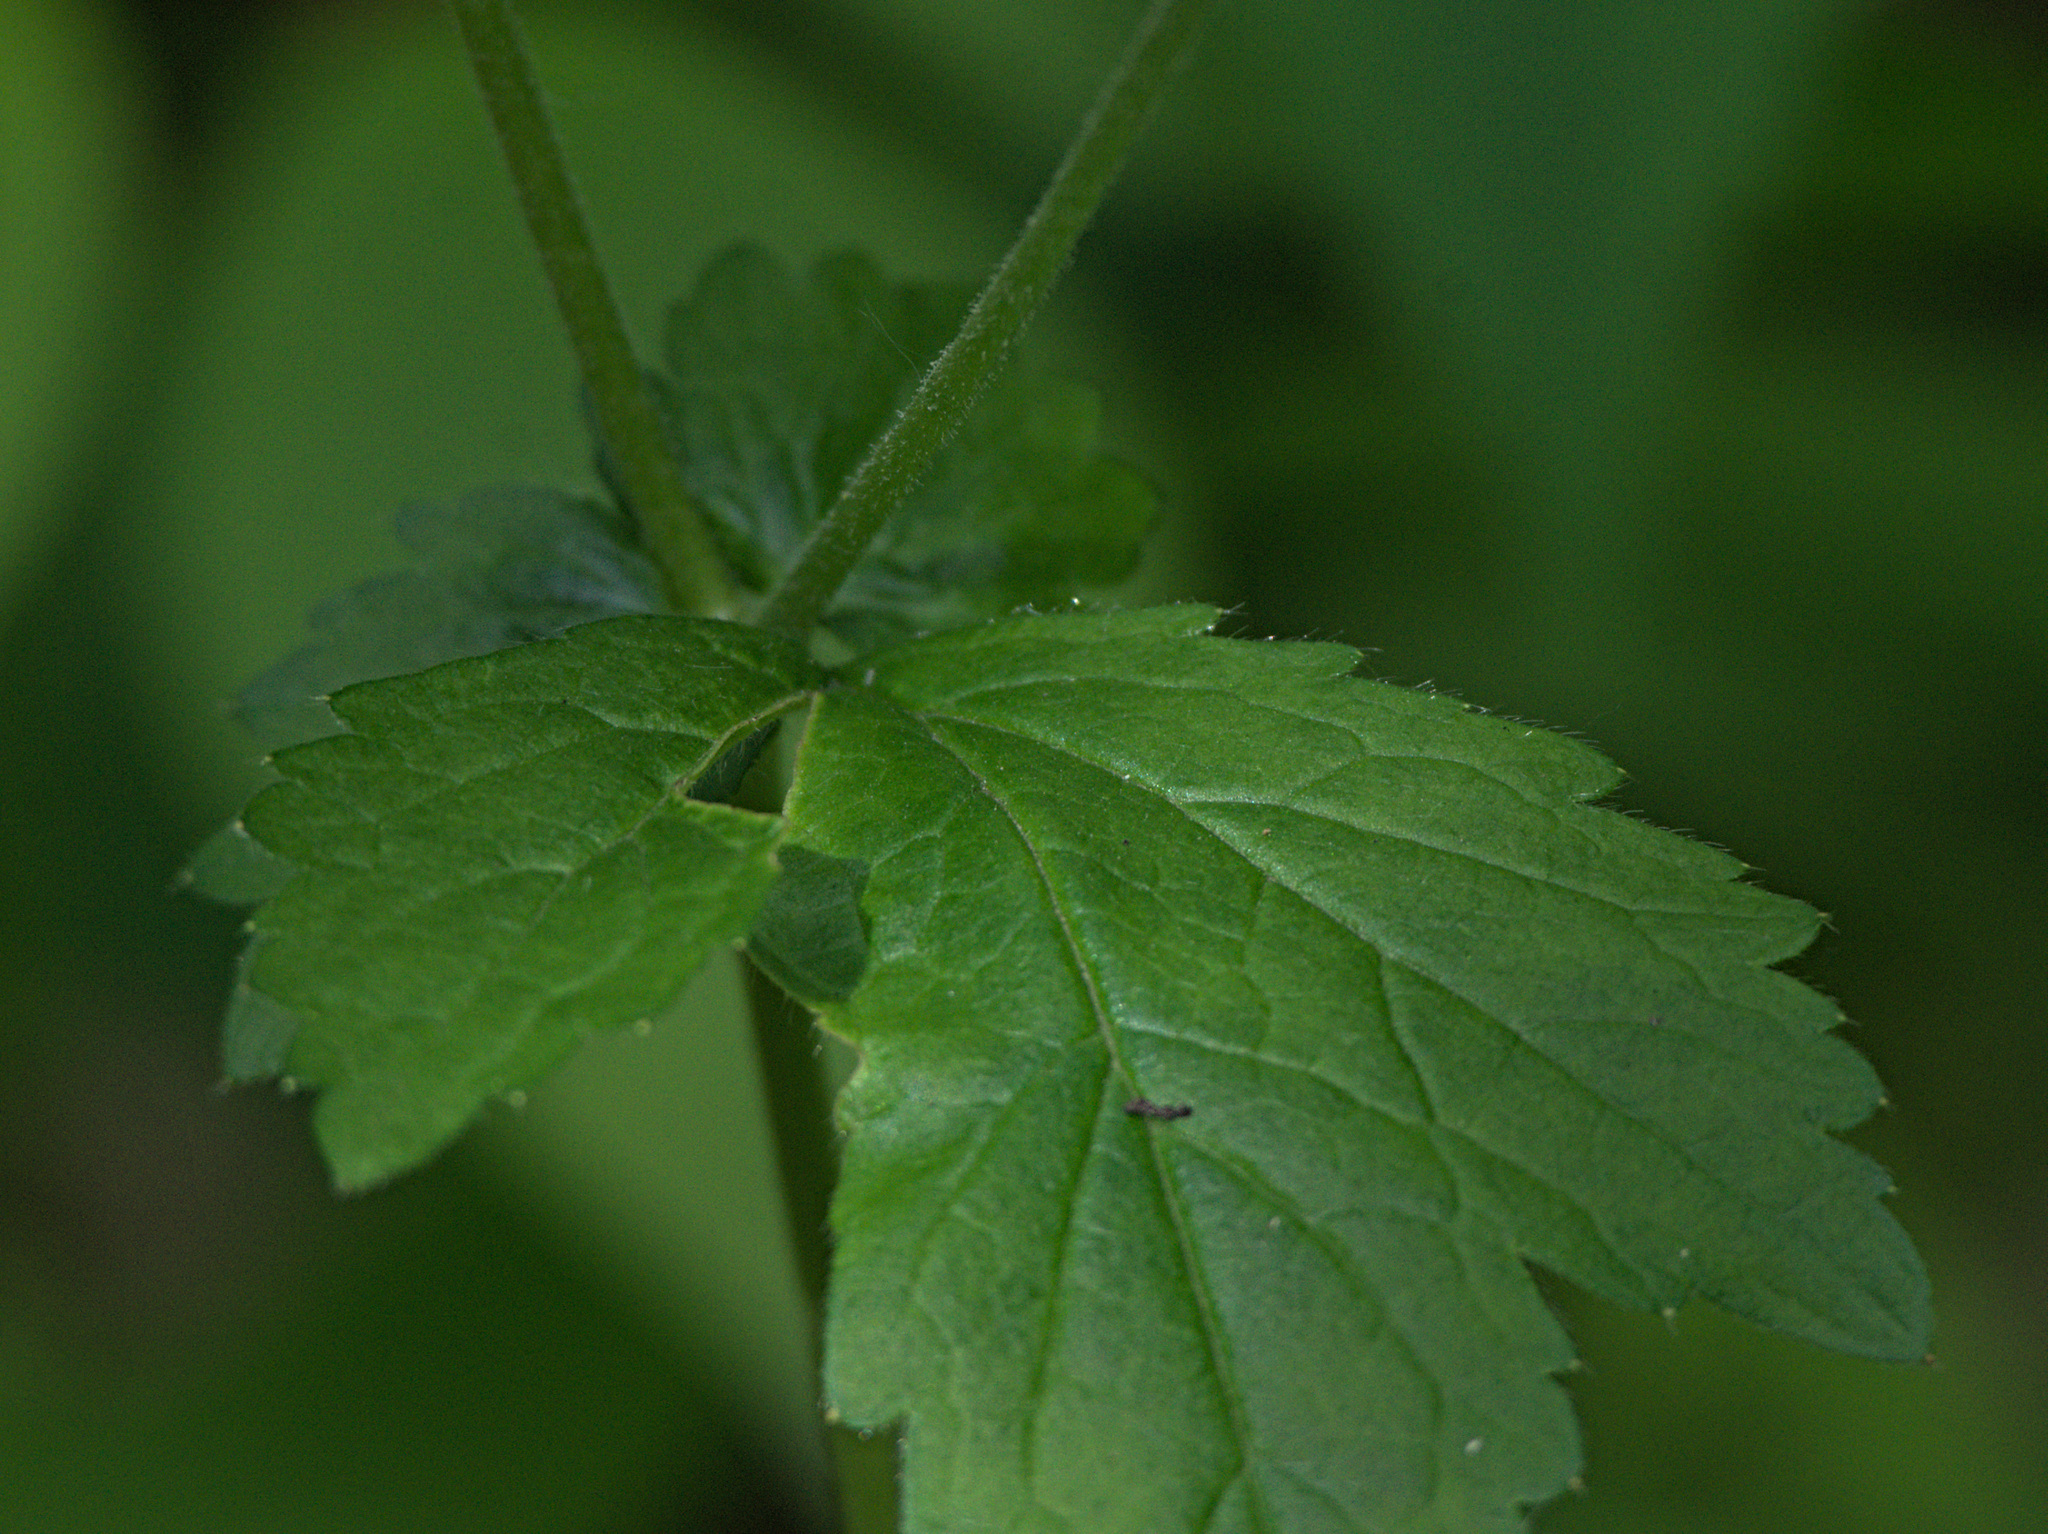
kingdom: Plantae
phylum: Tracheophyta
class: Magnoliopsida
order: Rosales
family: Rosaceae
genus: Geum
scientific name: Geum urbanum
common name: Wood avens
